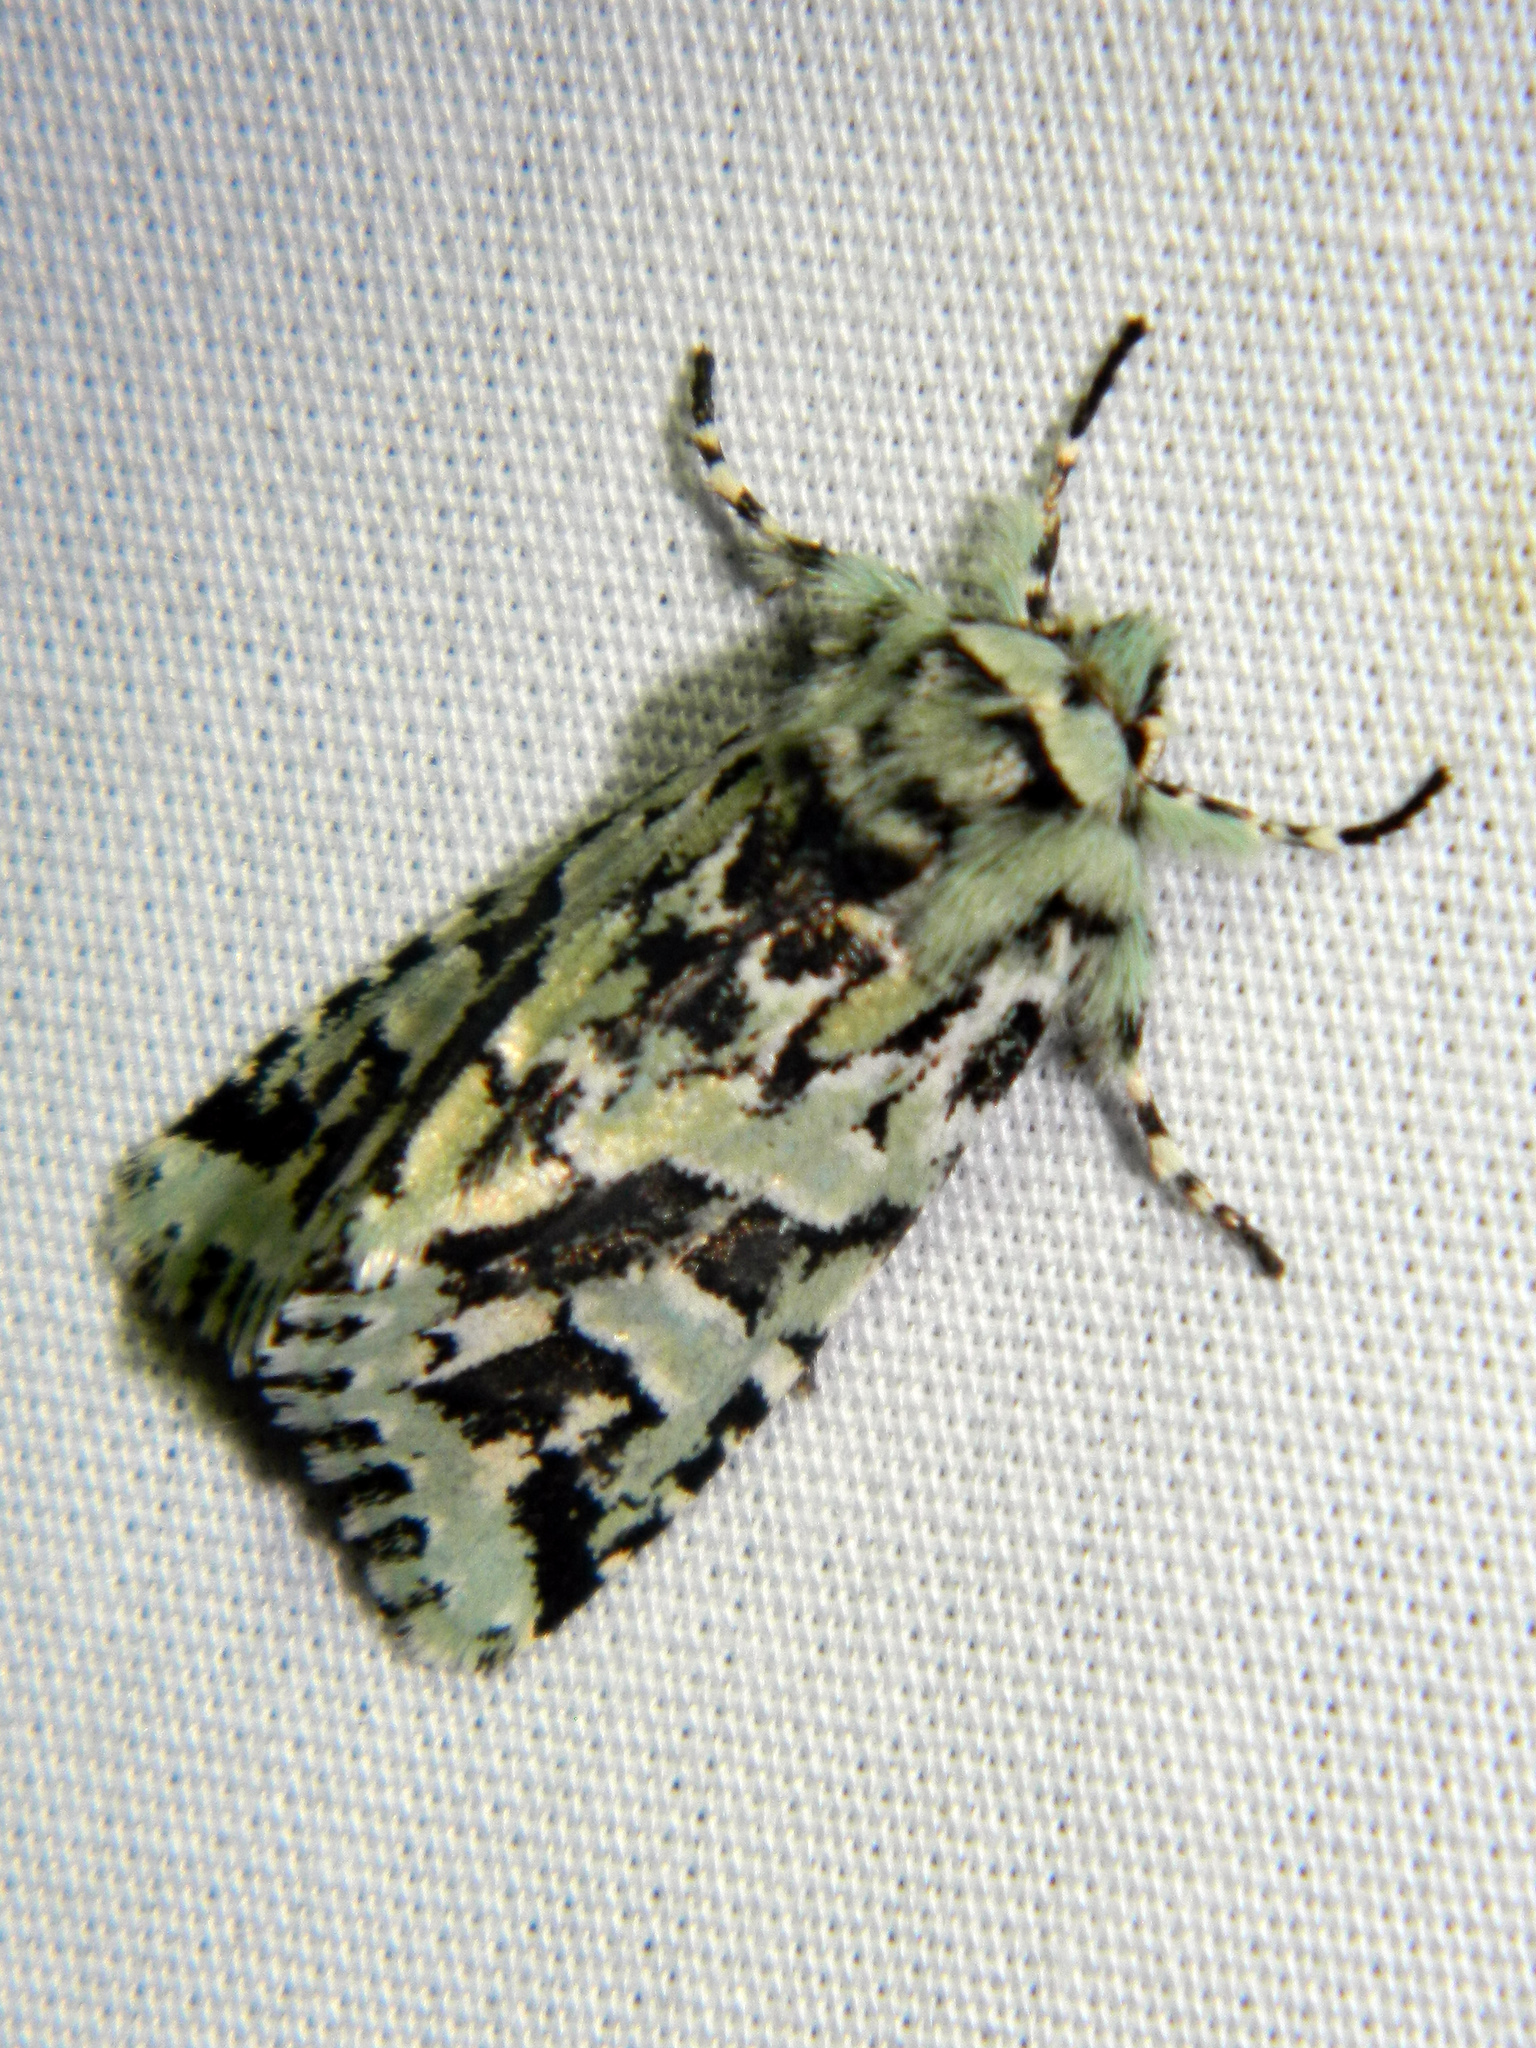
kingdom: Animalia
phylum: Arthropoda
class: Insecta
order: Lepidoptera
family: Noctuidae
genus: Feralia
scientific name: Feralia comstocki
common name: Comstock's sallow
